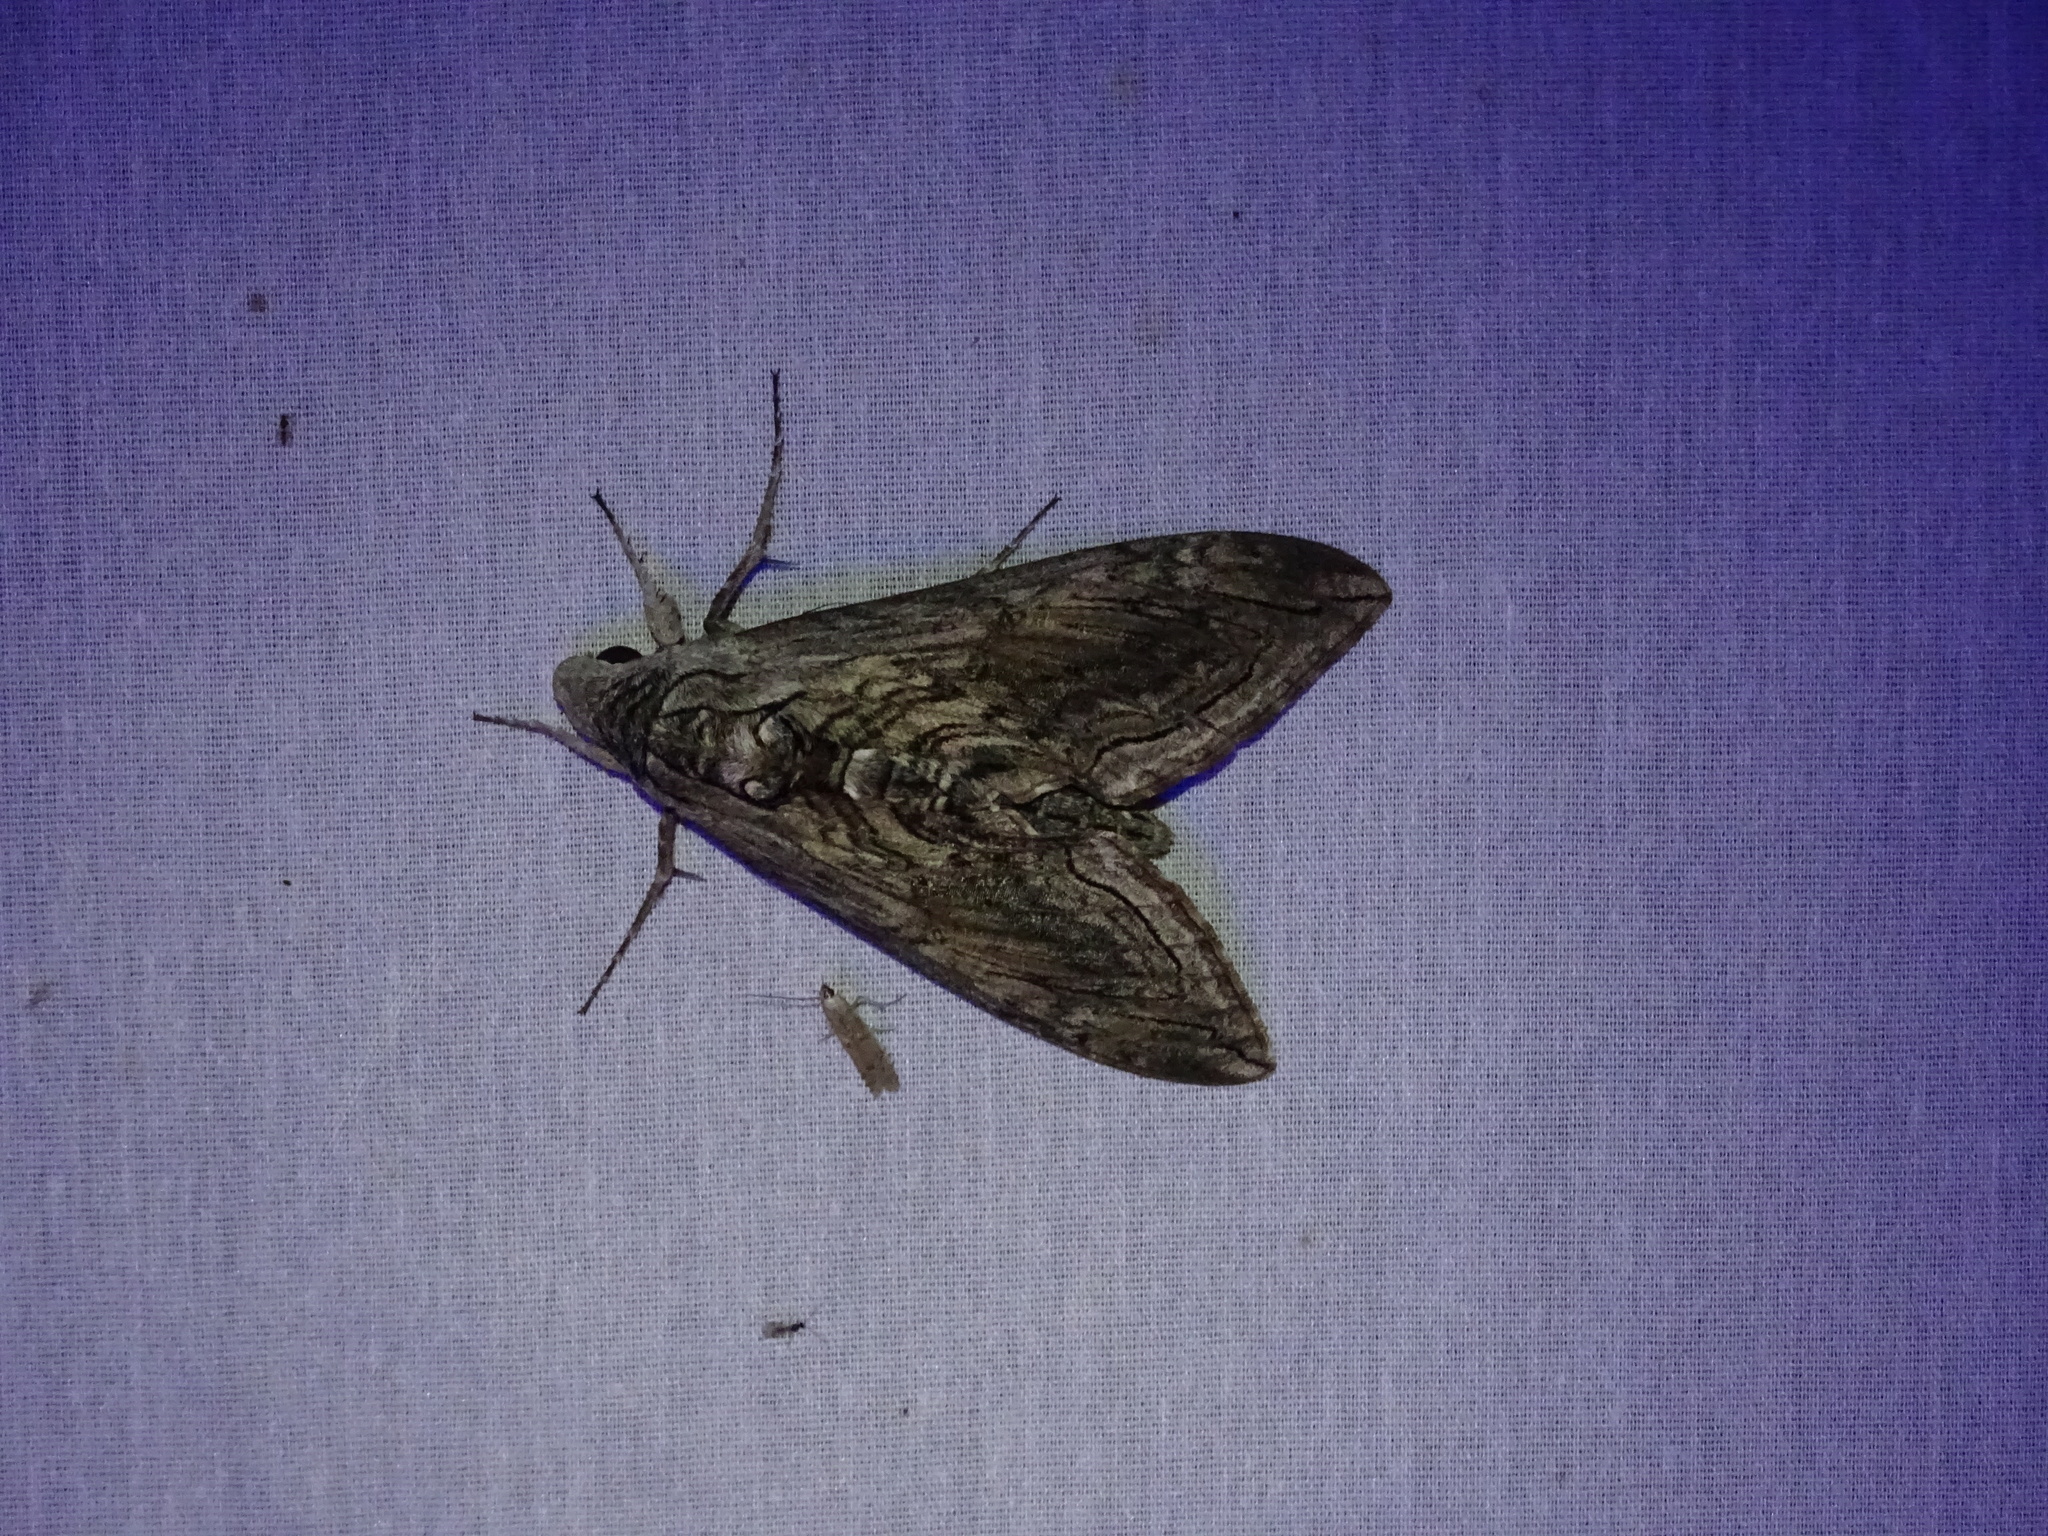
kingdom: Animalia
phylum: Arthropoda
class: Insecta
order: Lepidoptera
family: Sphingidae
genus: Manduca
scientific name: Manduca quinquemaculatus
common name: Five-spotted hawk-moth
